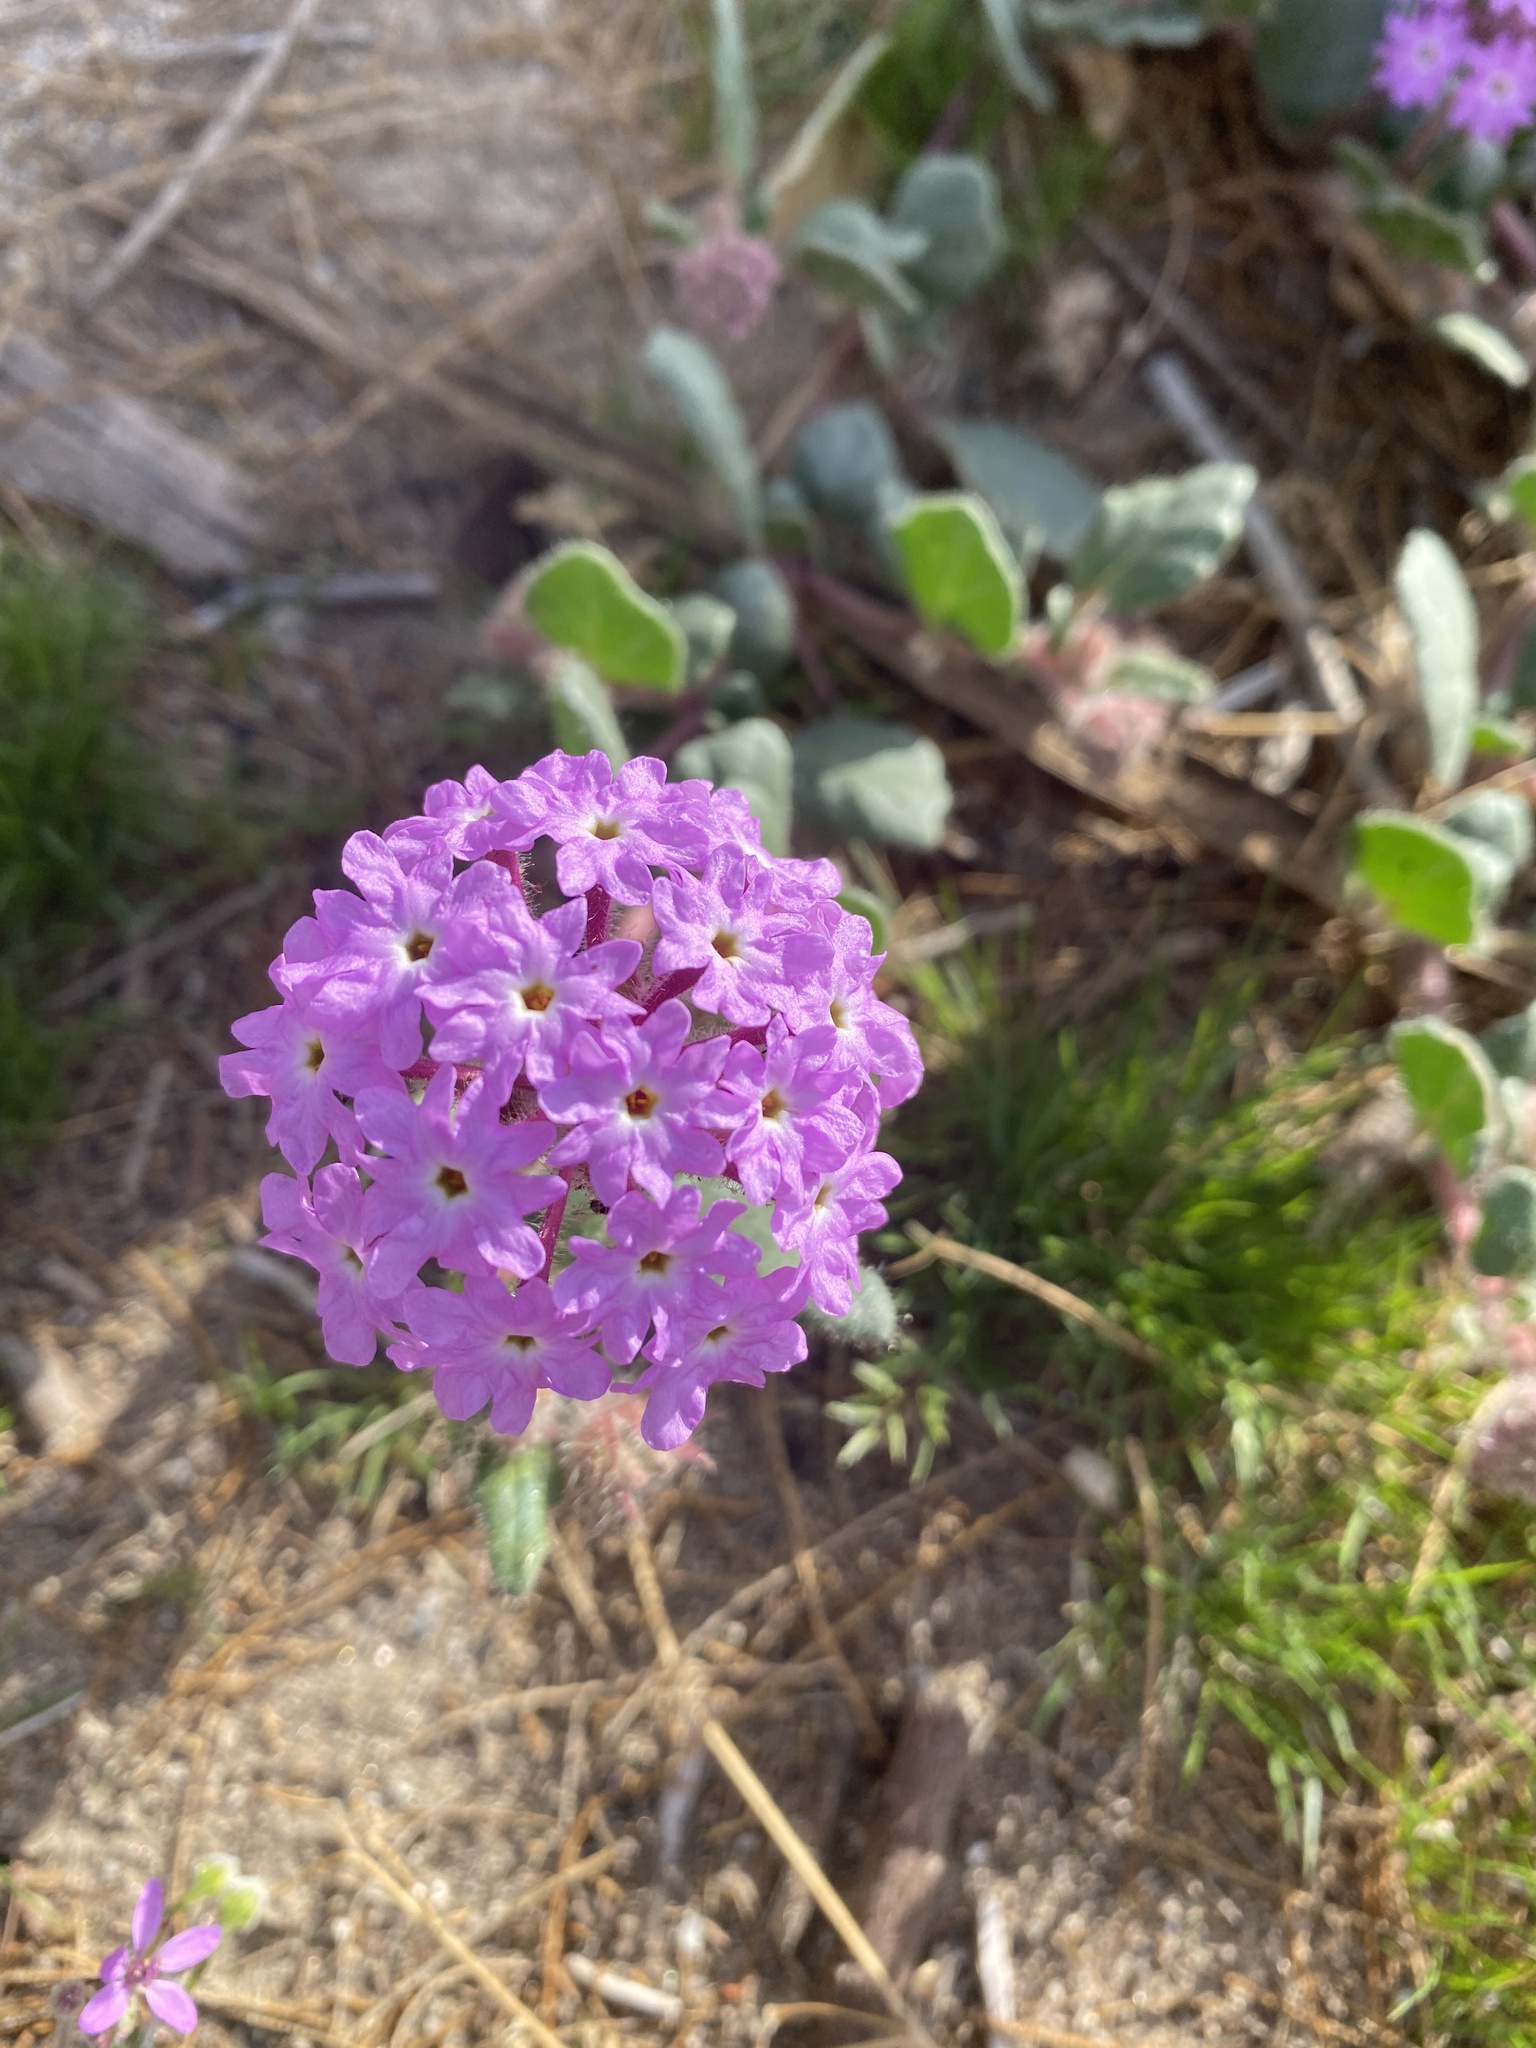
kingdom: Plantae
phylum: Tracheophyta
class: Magnoliopsida
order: Caryophyllales
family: Nyctaginaceae
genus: Abronia
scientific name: Abronia villosa
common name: Desert sand-verbena
